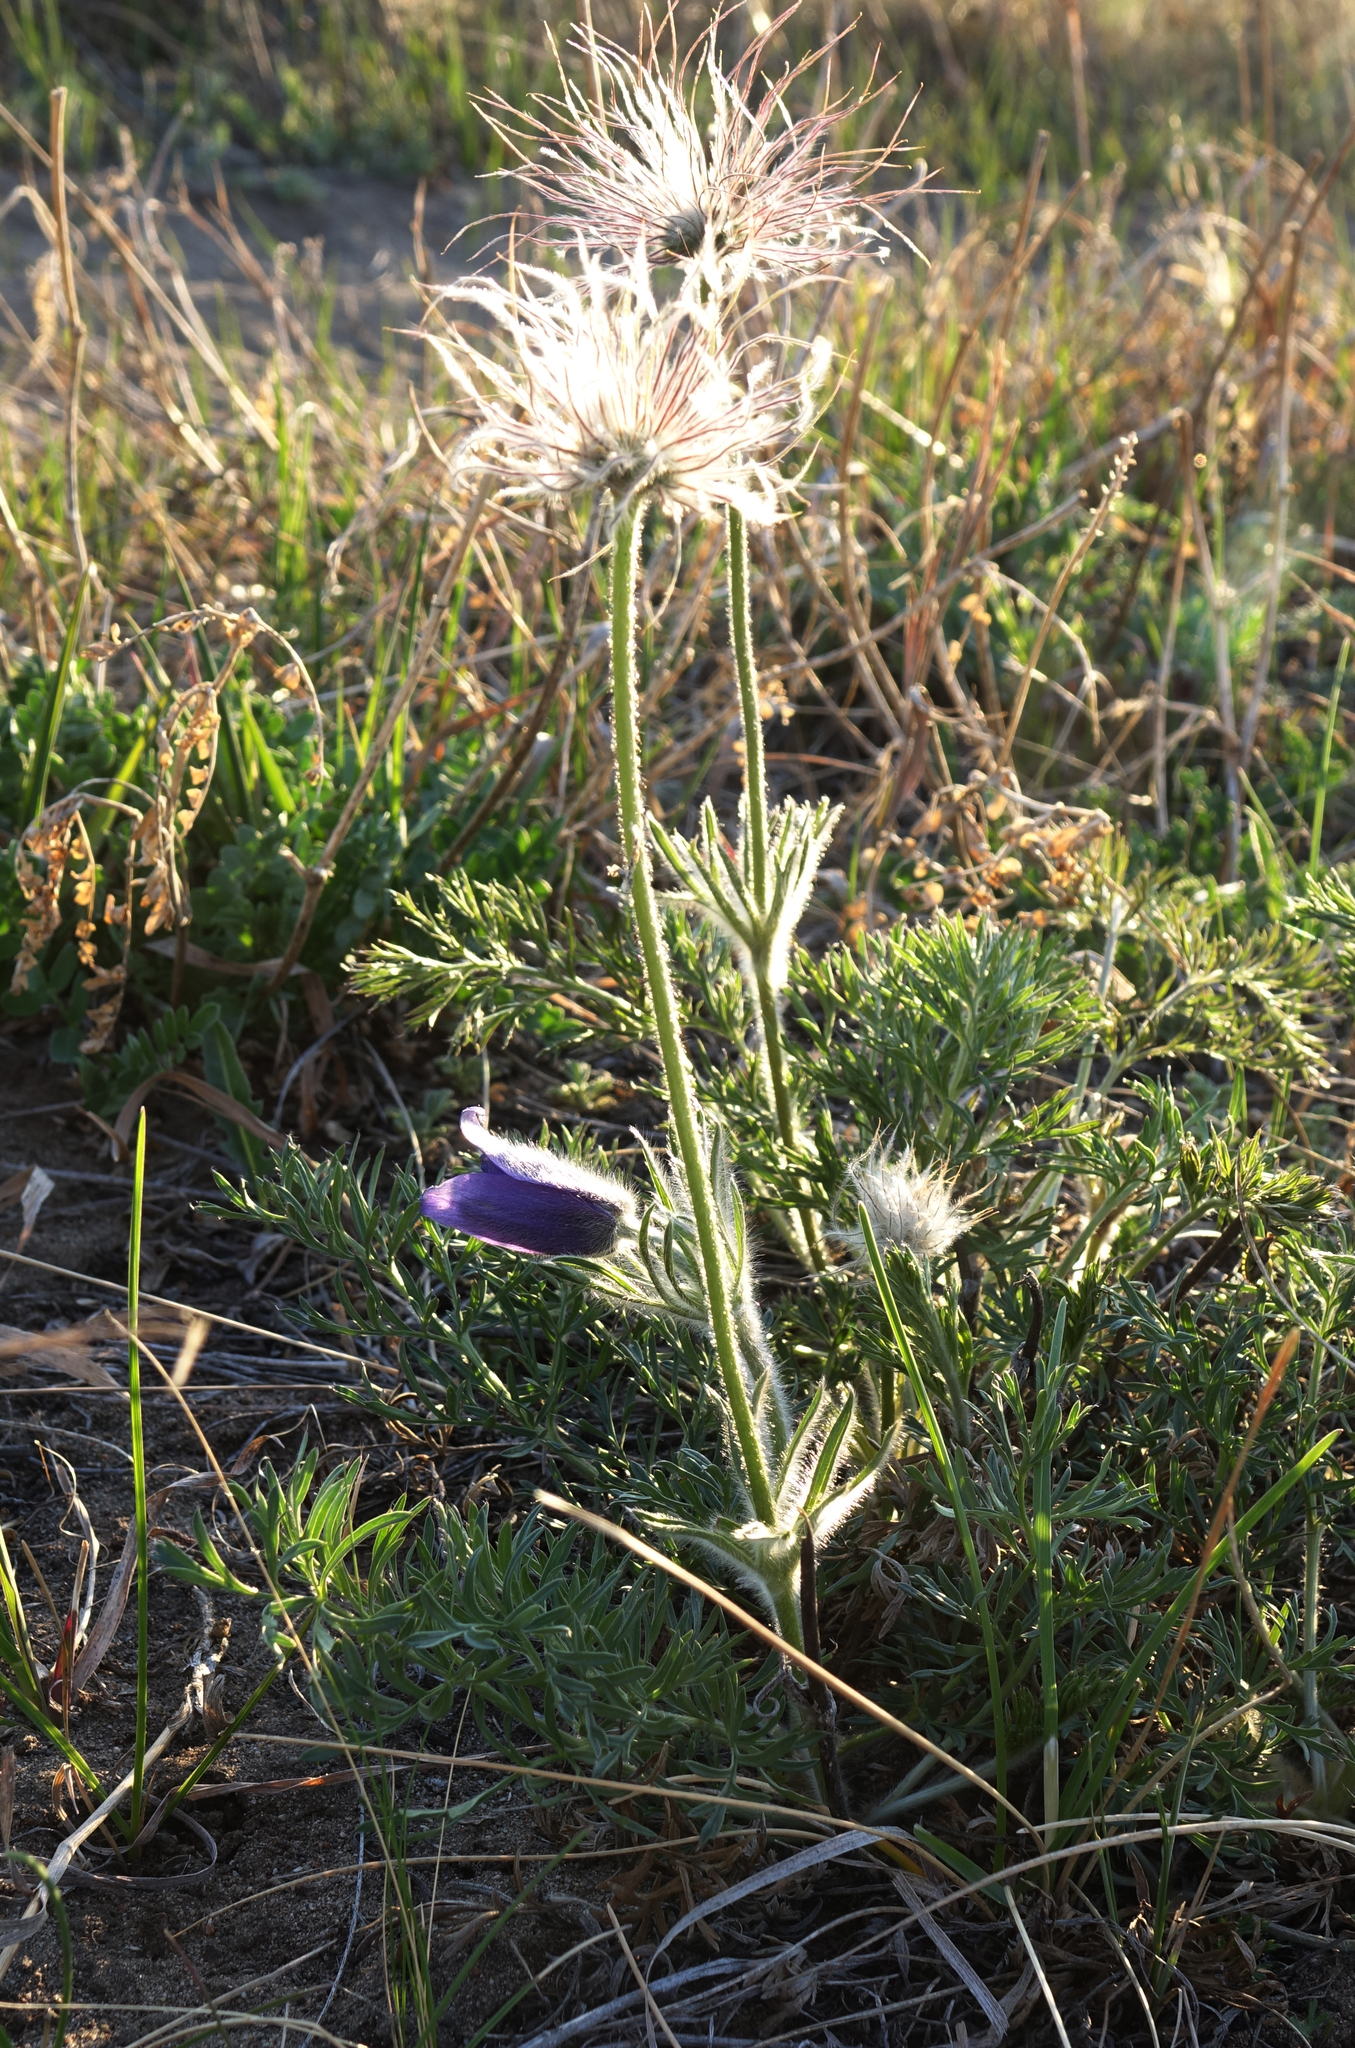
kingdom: Plantae
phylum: Tracheophyta
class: Magnoliopsida
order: Ranunculales
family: Ranunculaceae
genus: Pulsatilla
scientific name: Pulsatilla turczaninovii
